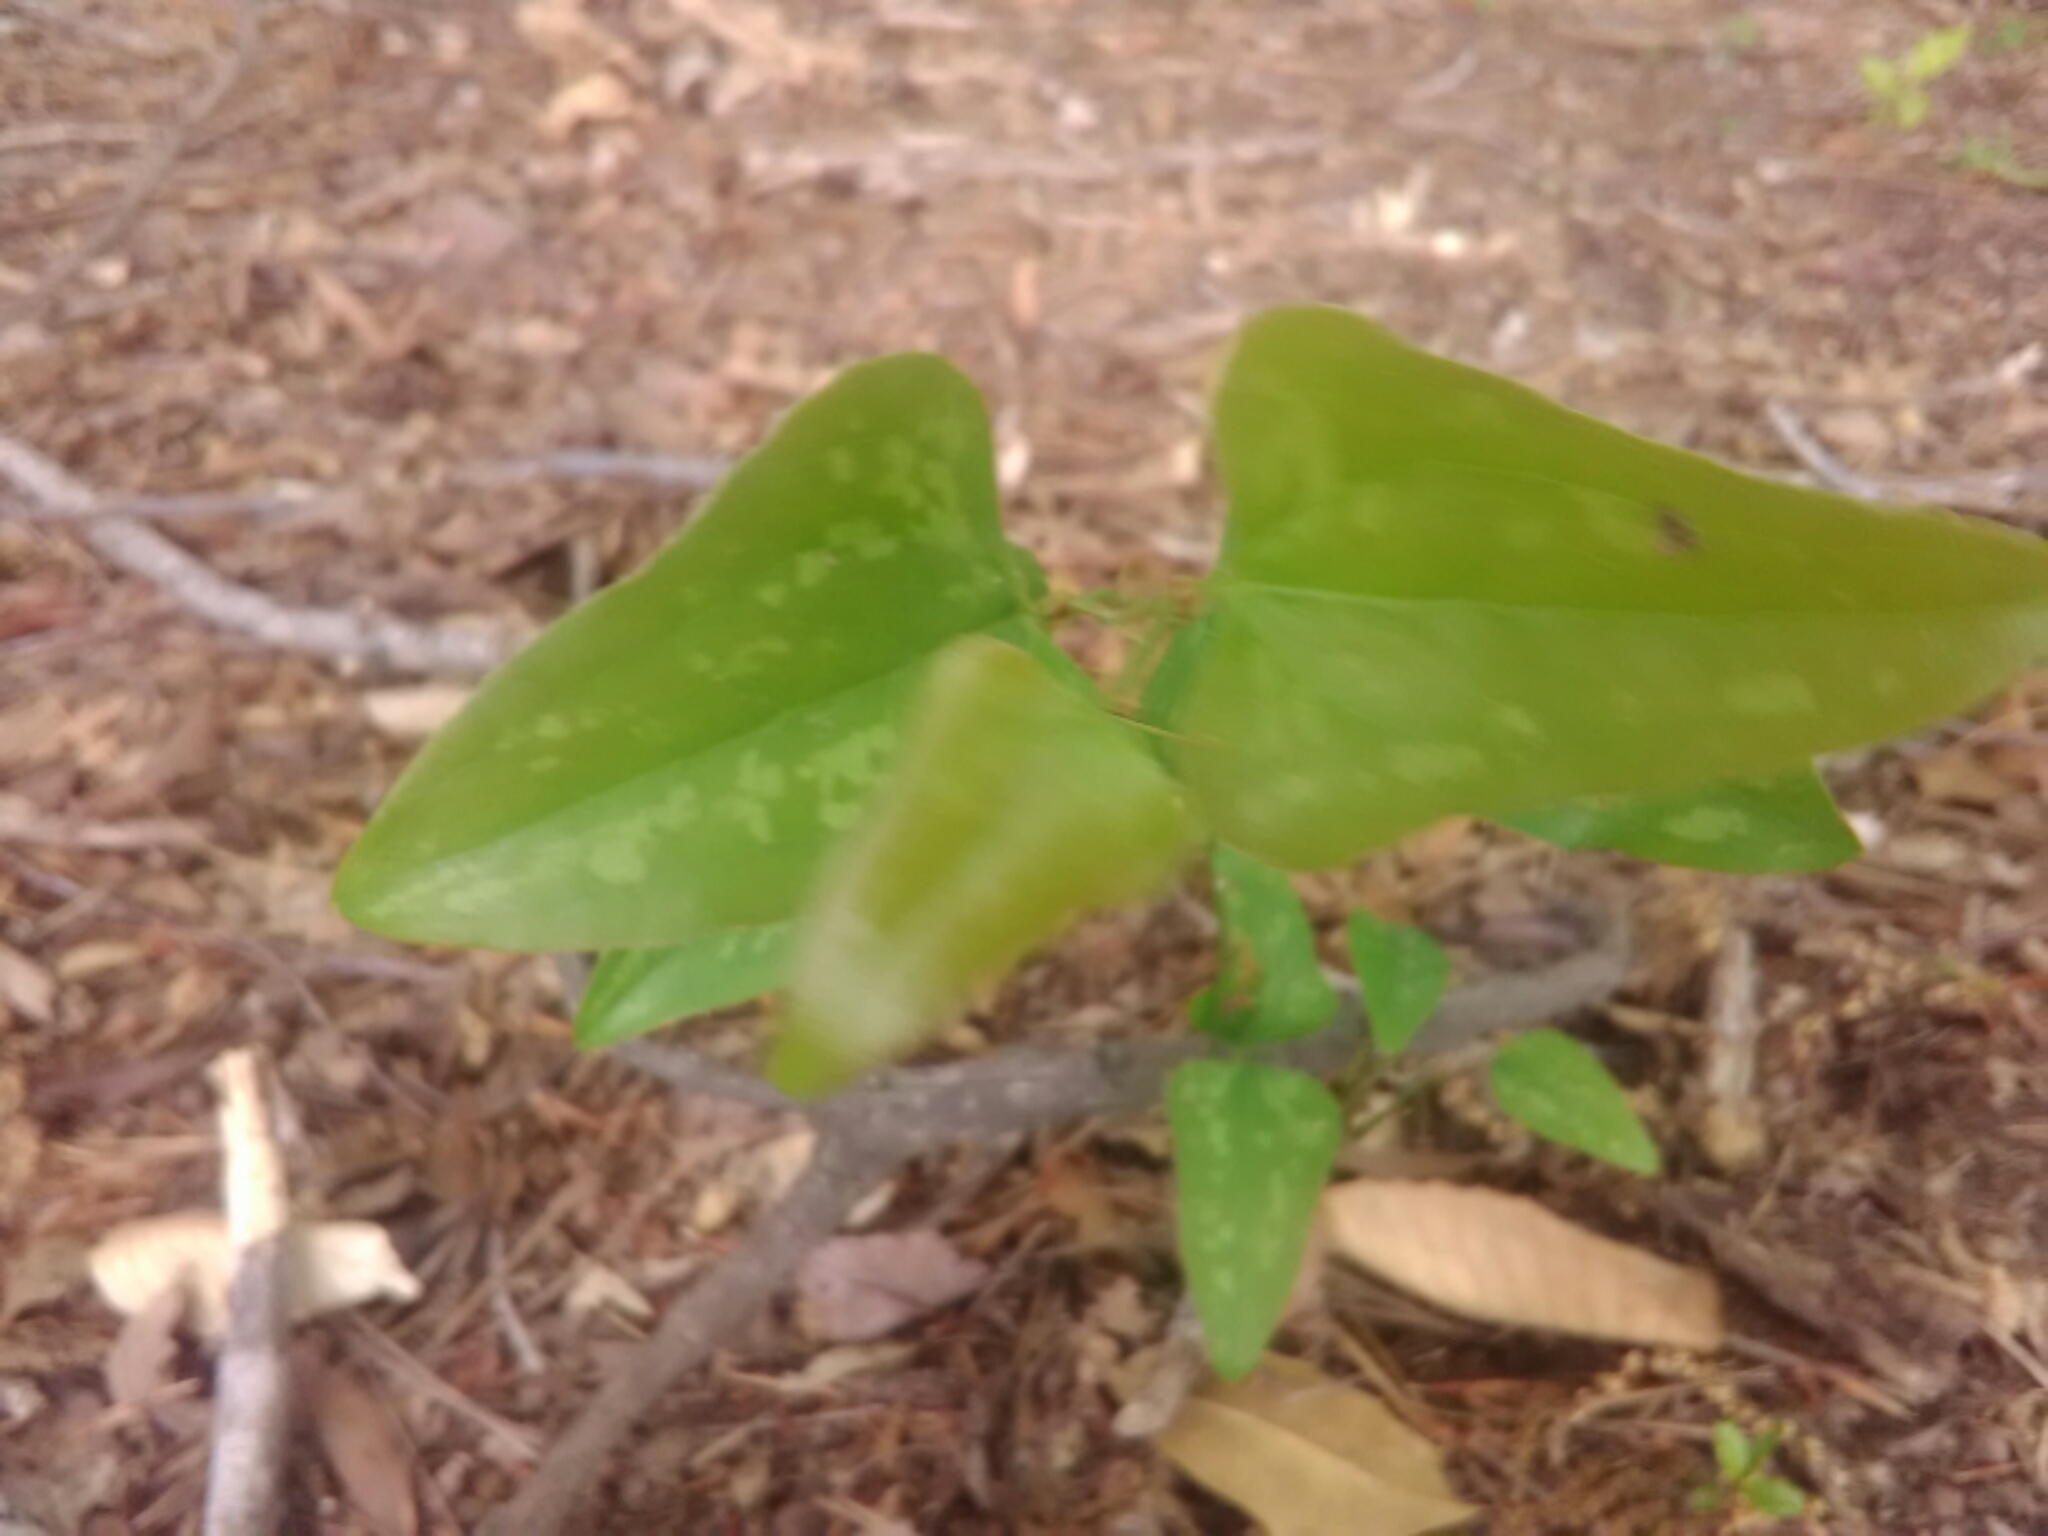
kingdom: Plantae
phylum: Tracheophyta
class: Liliopsida
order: Liliales
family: Smilacaceae
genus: Smilax
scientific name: Smilax bona-nox
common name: Catbrier
